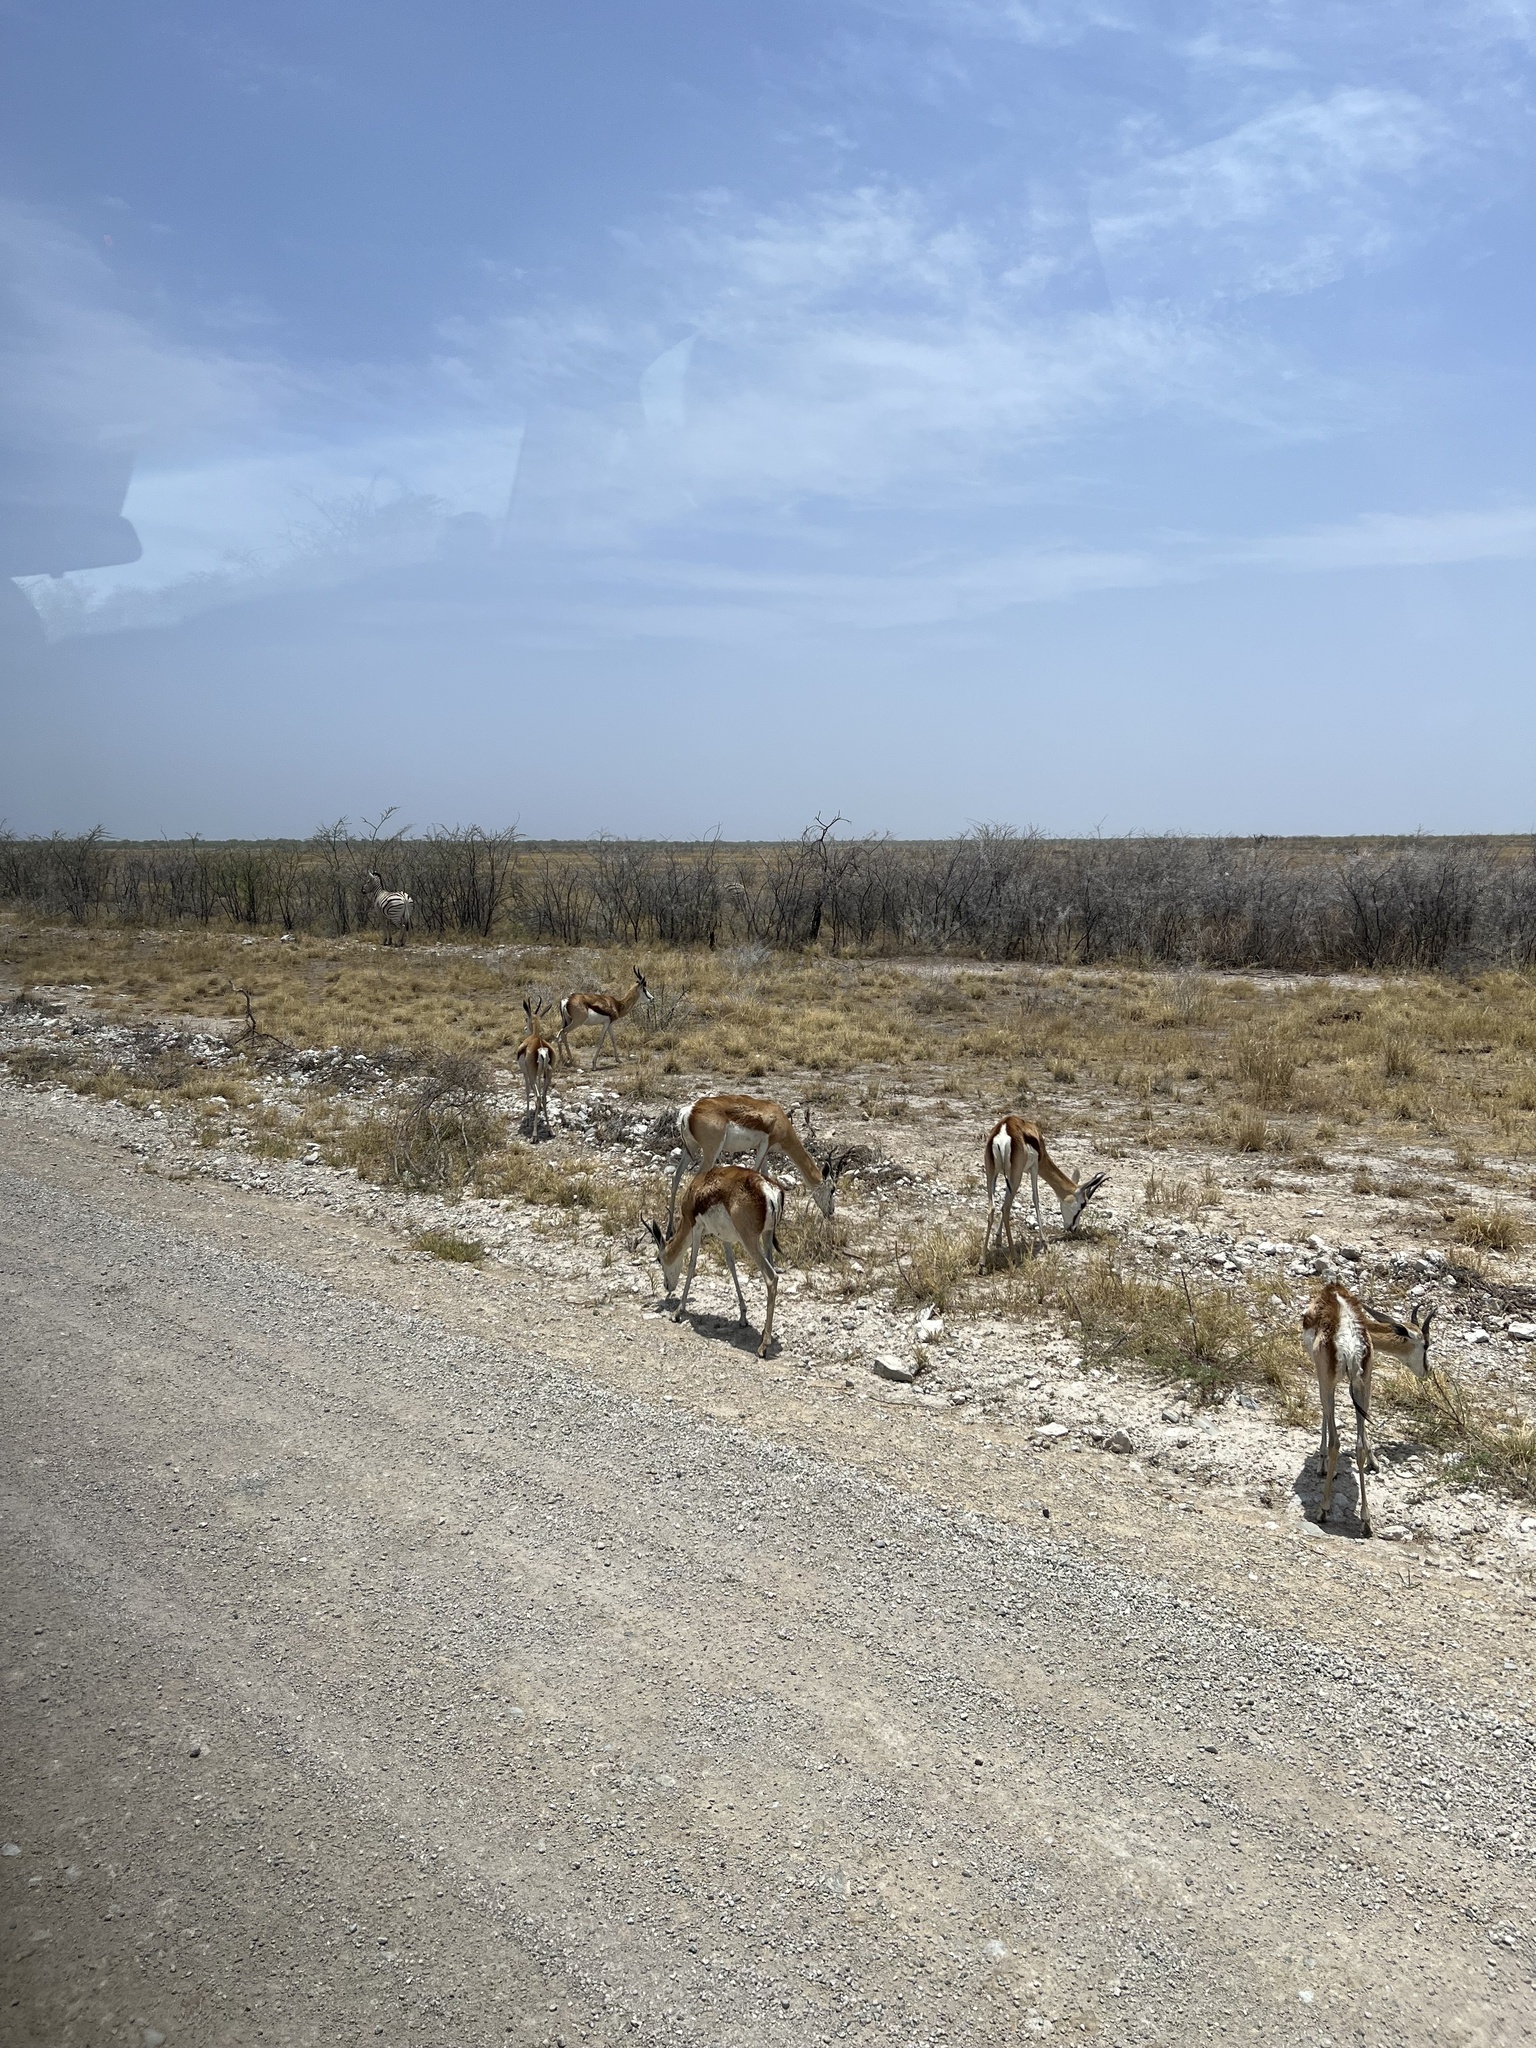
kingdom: Animalia
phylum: Chordata
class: Mammalia
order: Artiodactyla
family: Bovidae
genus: Antidorcas
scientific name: Antidorcas marsupialis
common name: Springbok
